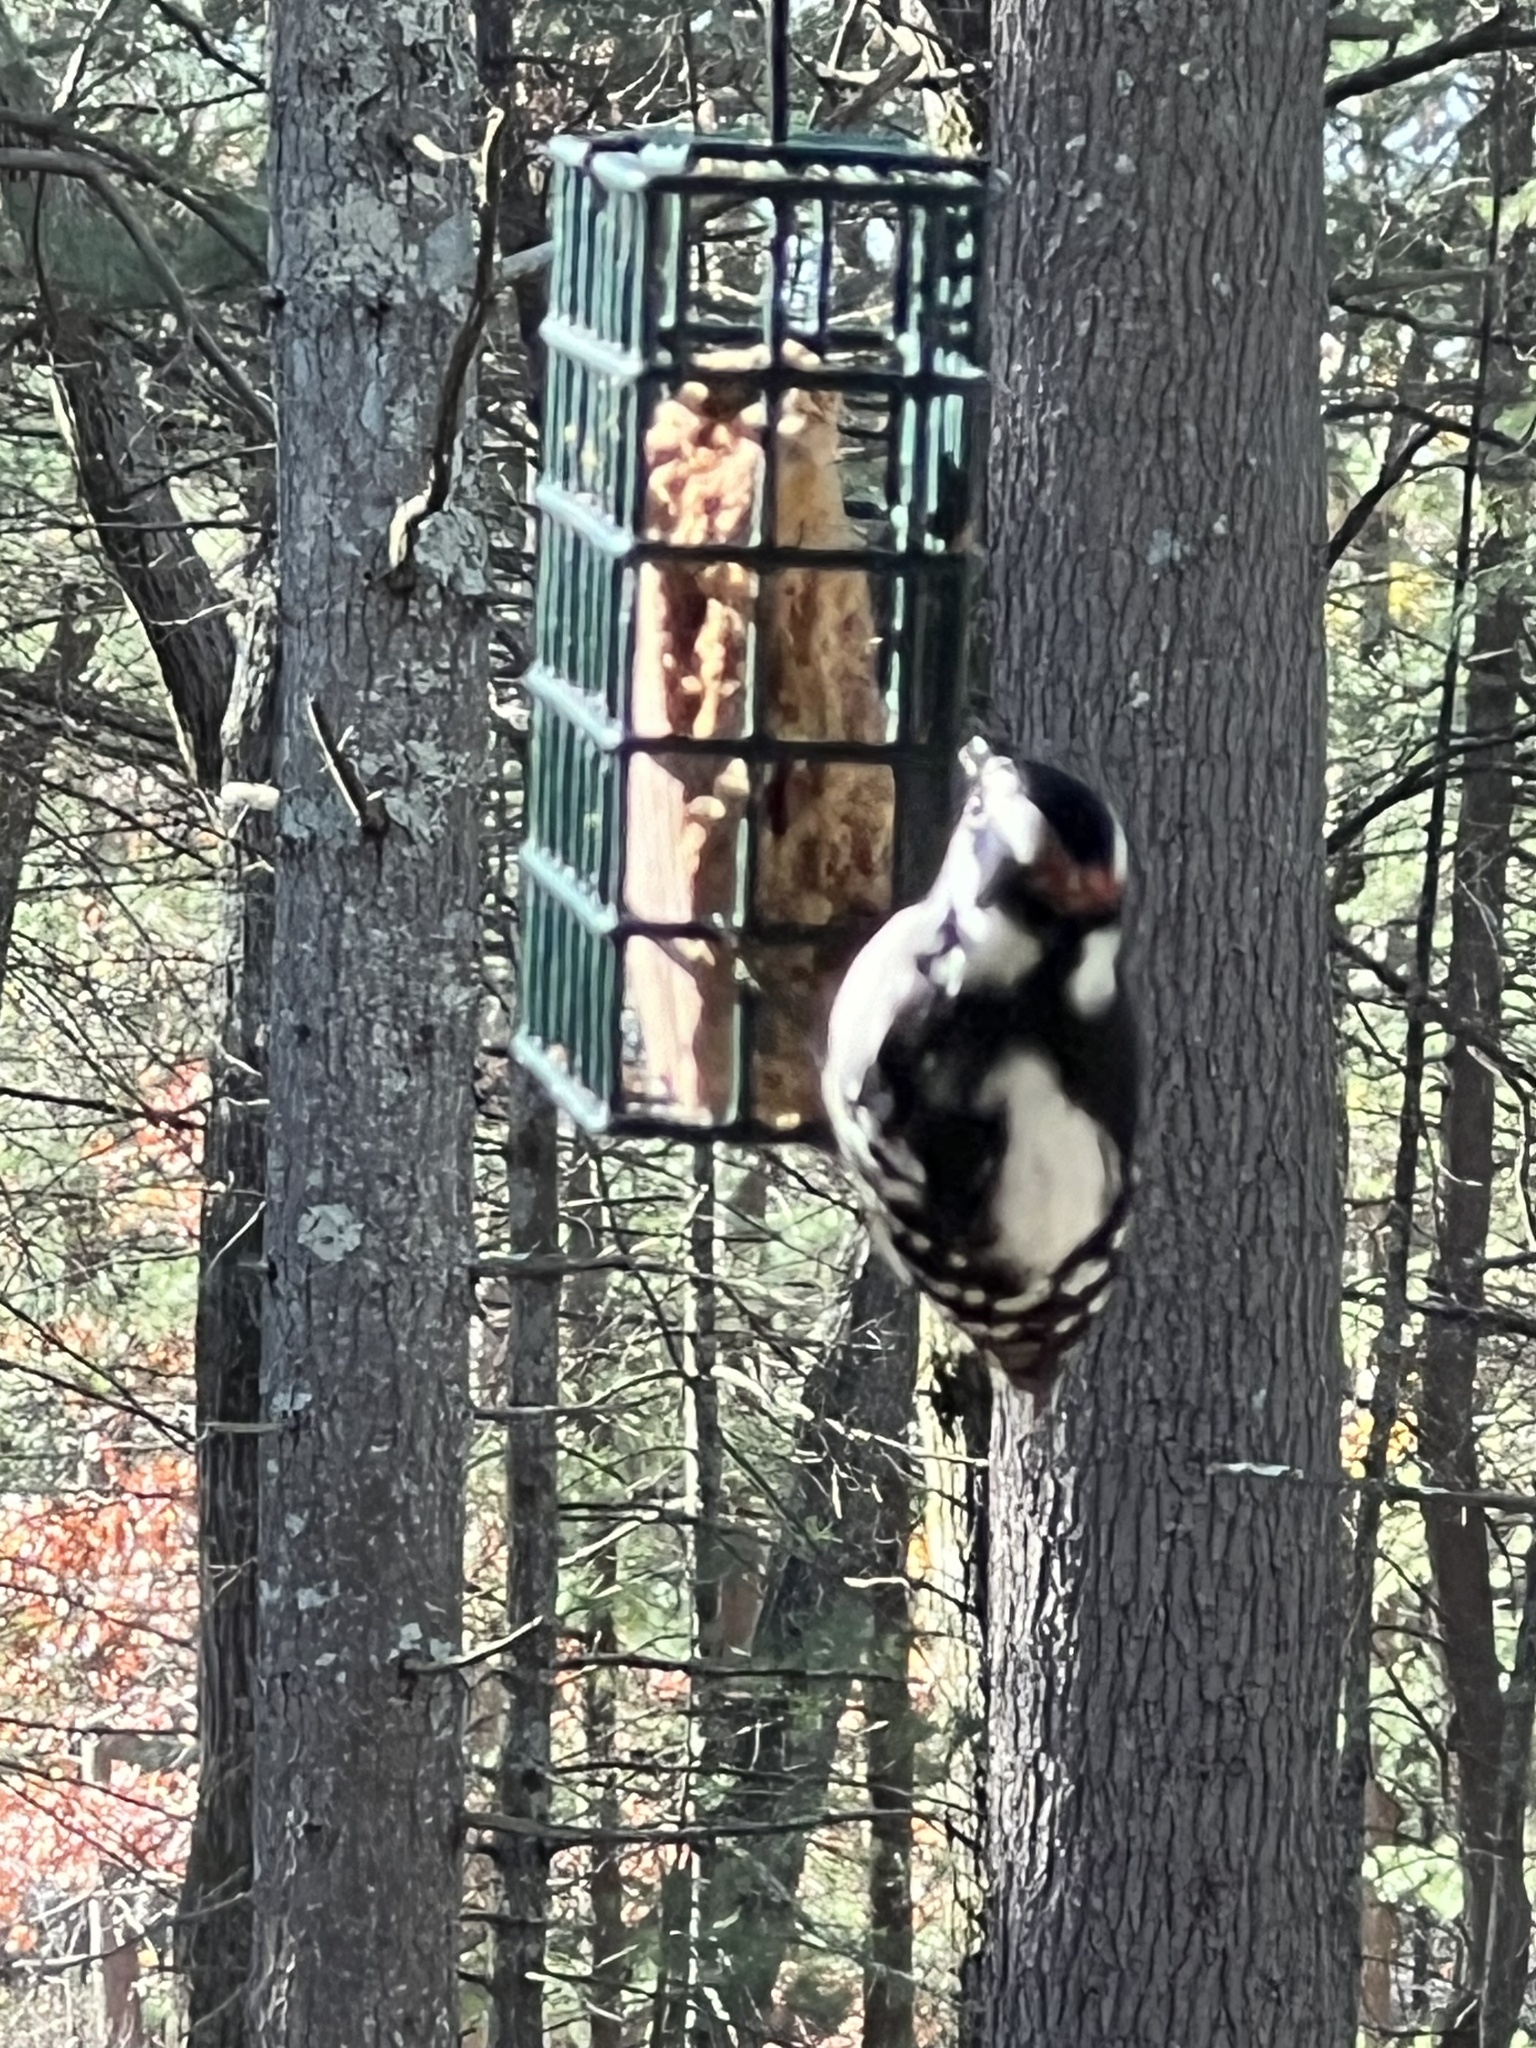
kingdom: Animalia
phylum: Chordata
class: Aves
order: Piciformes
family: Picidae
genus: Dryobates
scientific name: Dryobates pubescens
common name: Downy woodpecker
